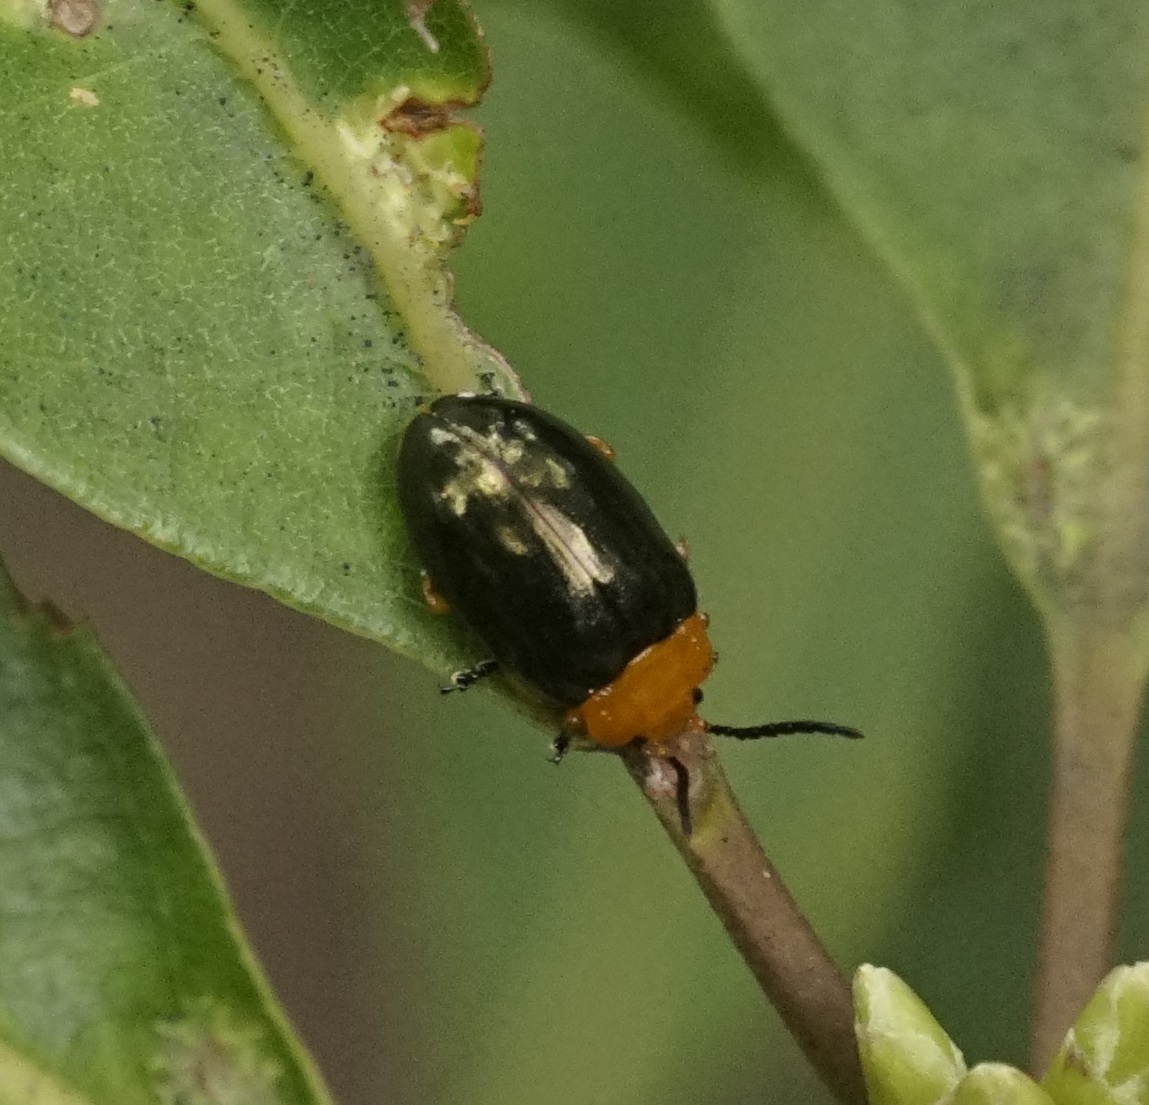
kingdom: Animalia
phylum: Arthropoda
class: Insecta
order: Coleoptera
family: Chrysomelidae
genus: Lamprolina
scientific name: Lamprolina
